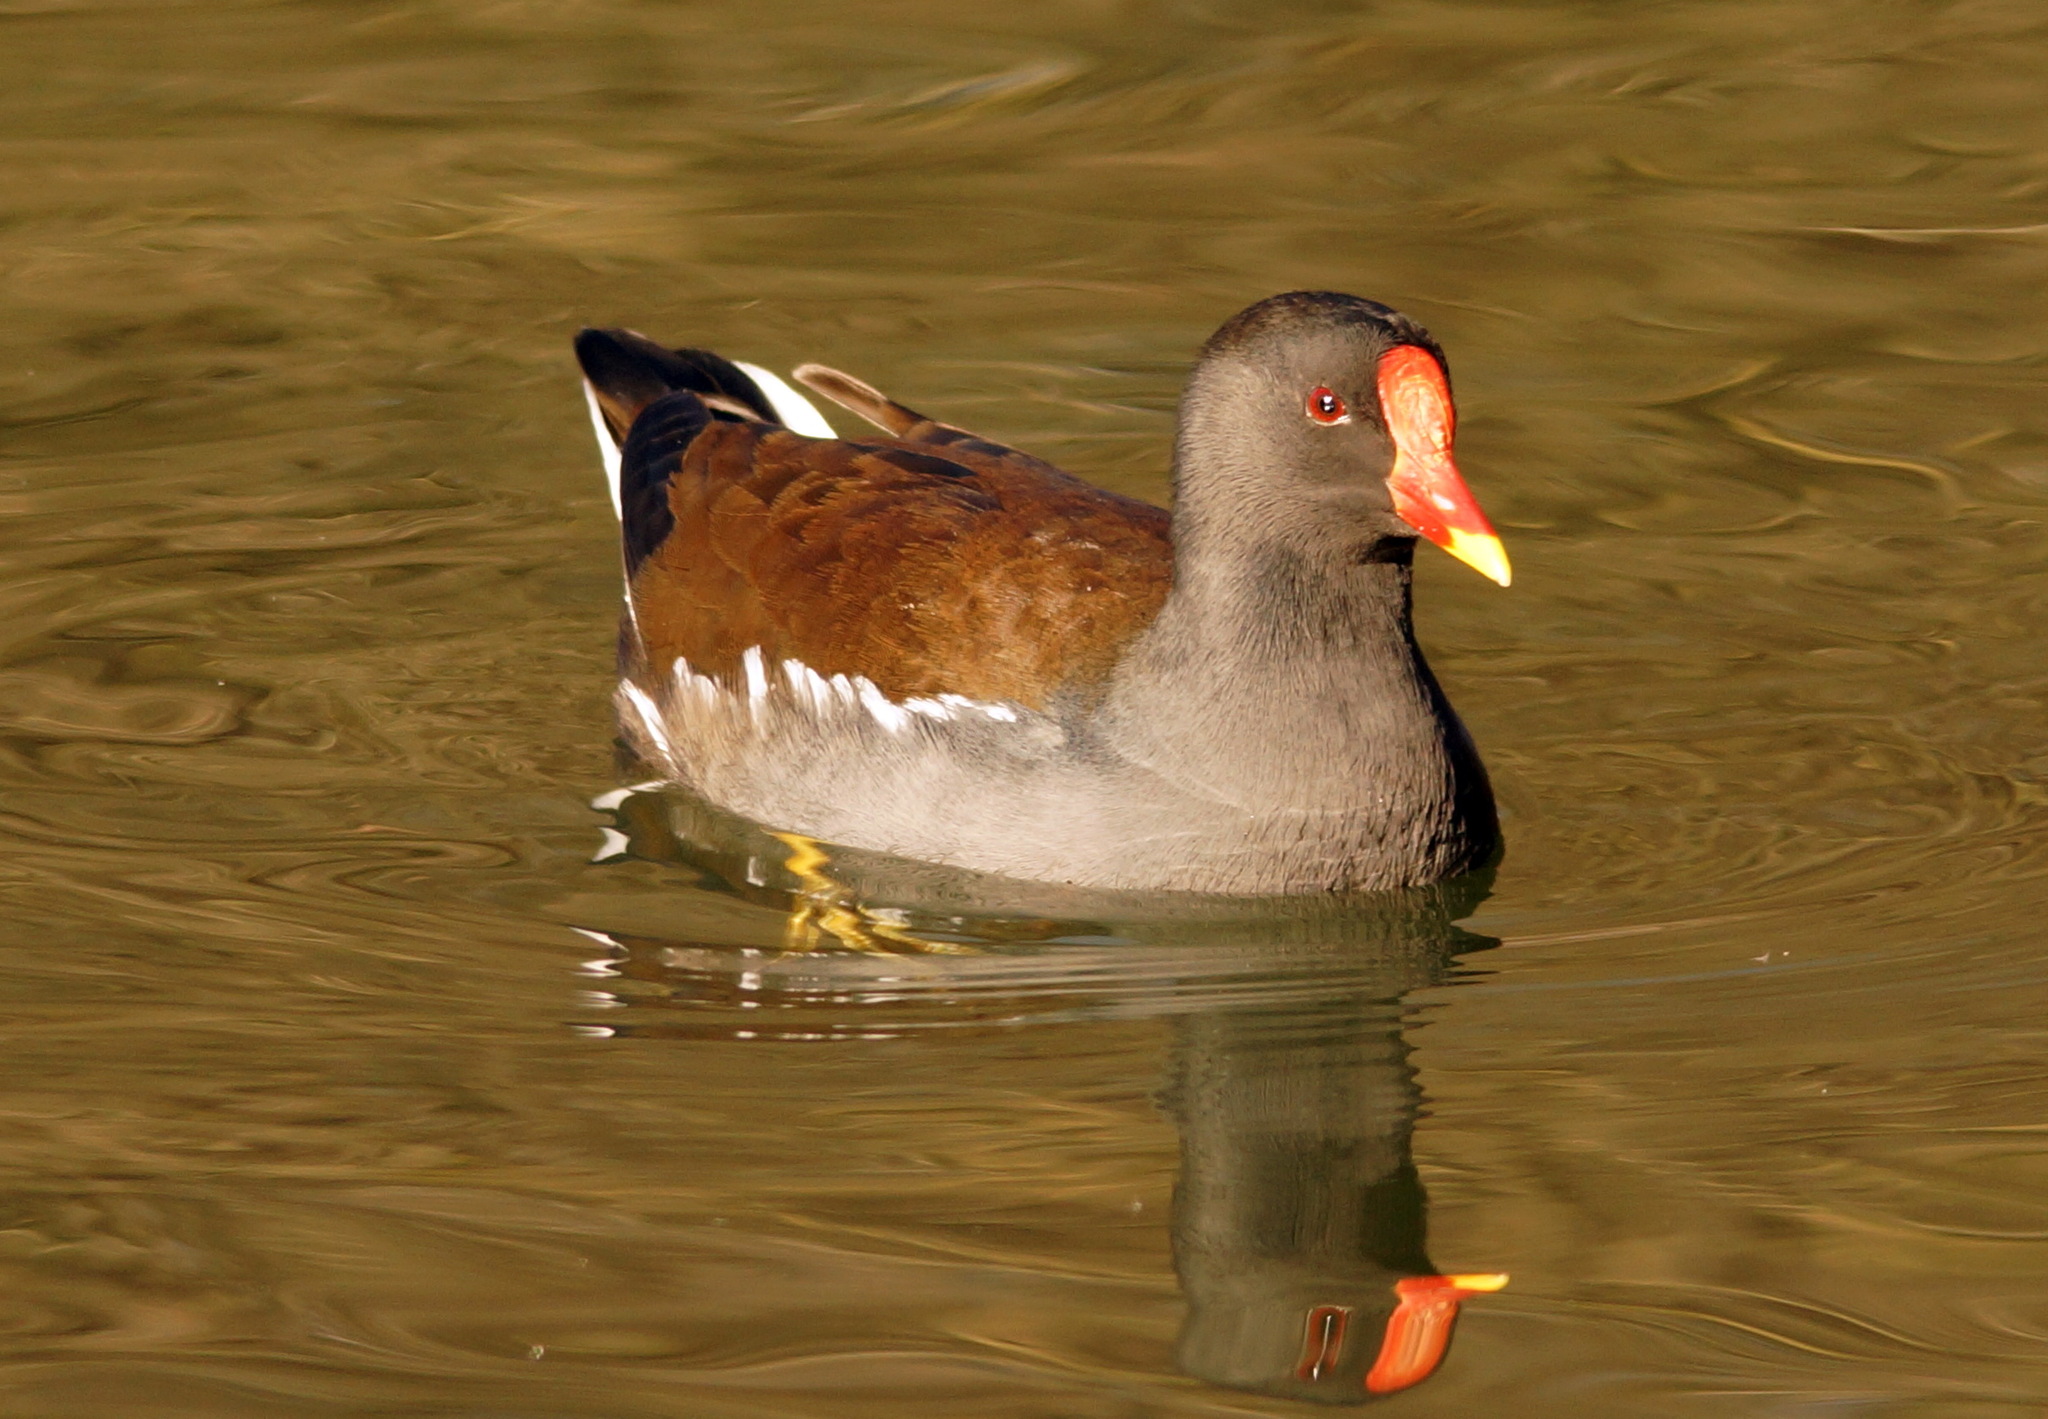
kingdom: Animalia
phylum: Chordata
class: Aves
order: Gruiformes
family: Rallidae
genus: Gallinula
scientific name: Gallinula chloropus
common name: Common moorhen
